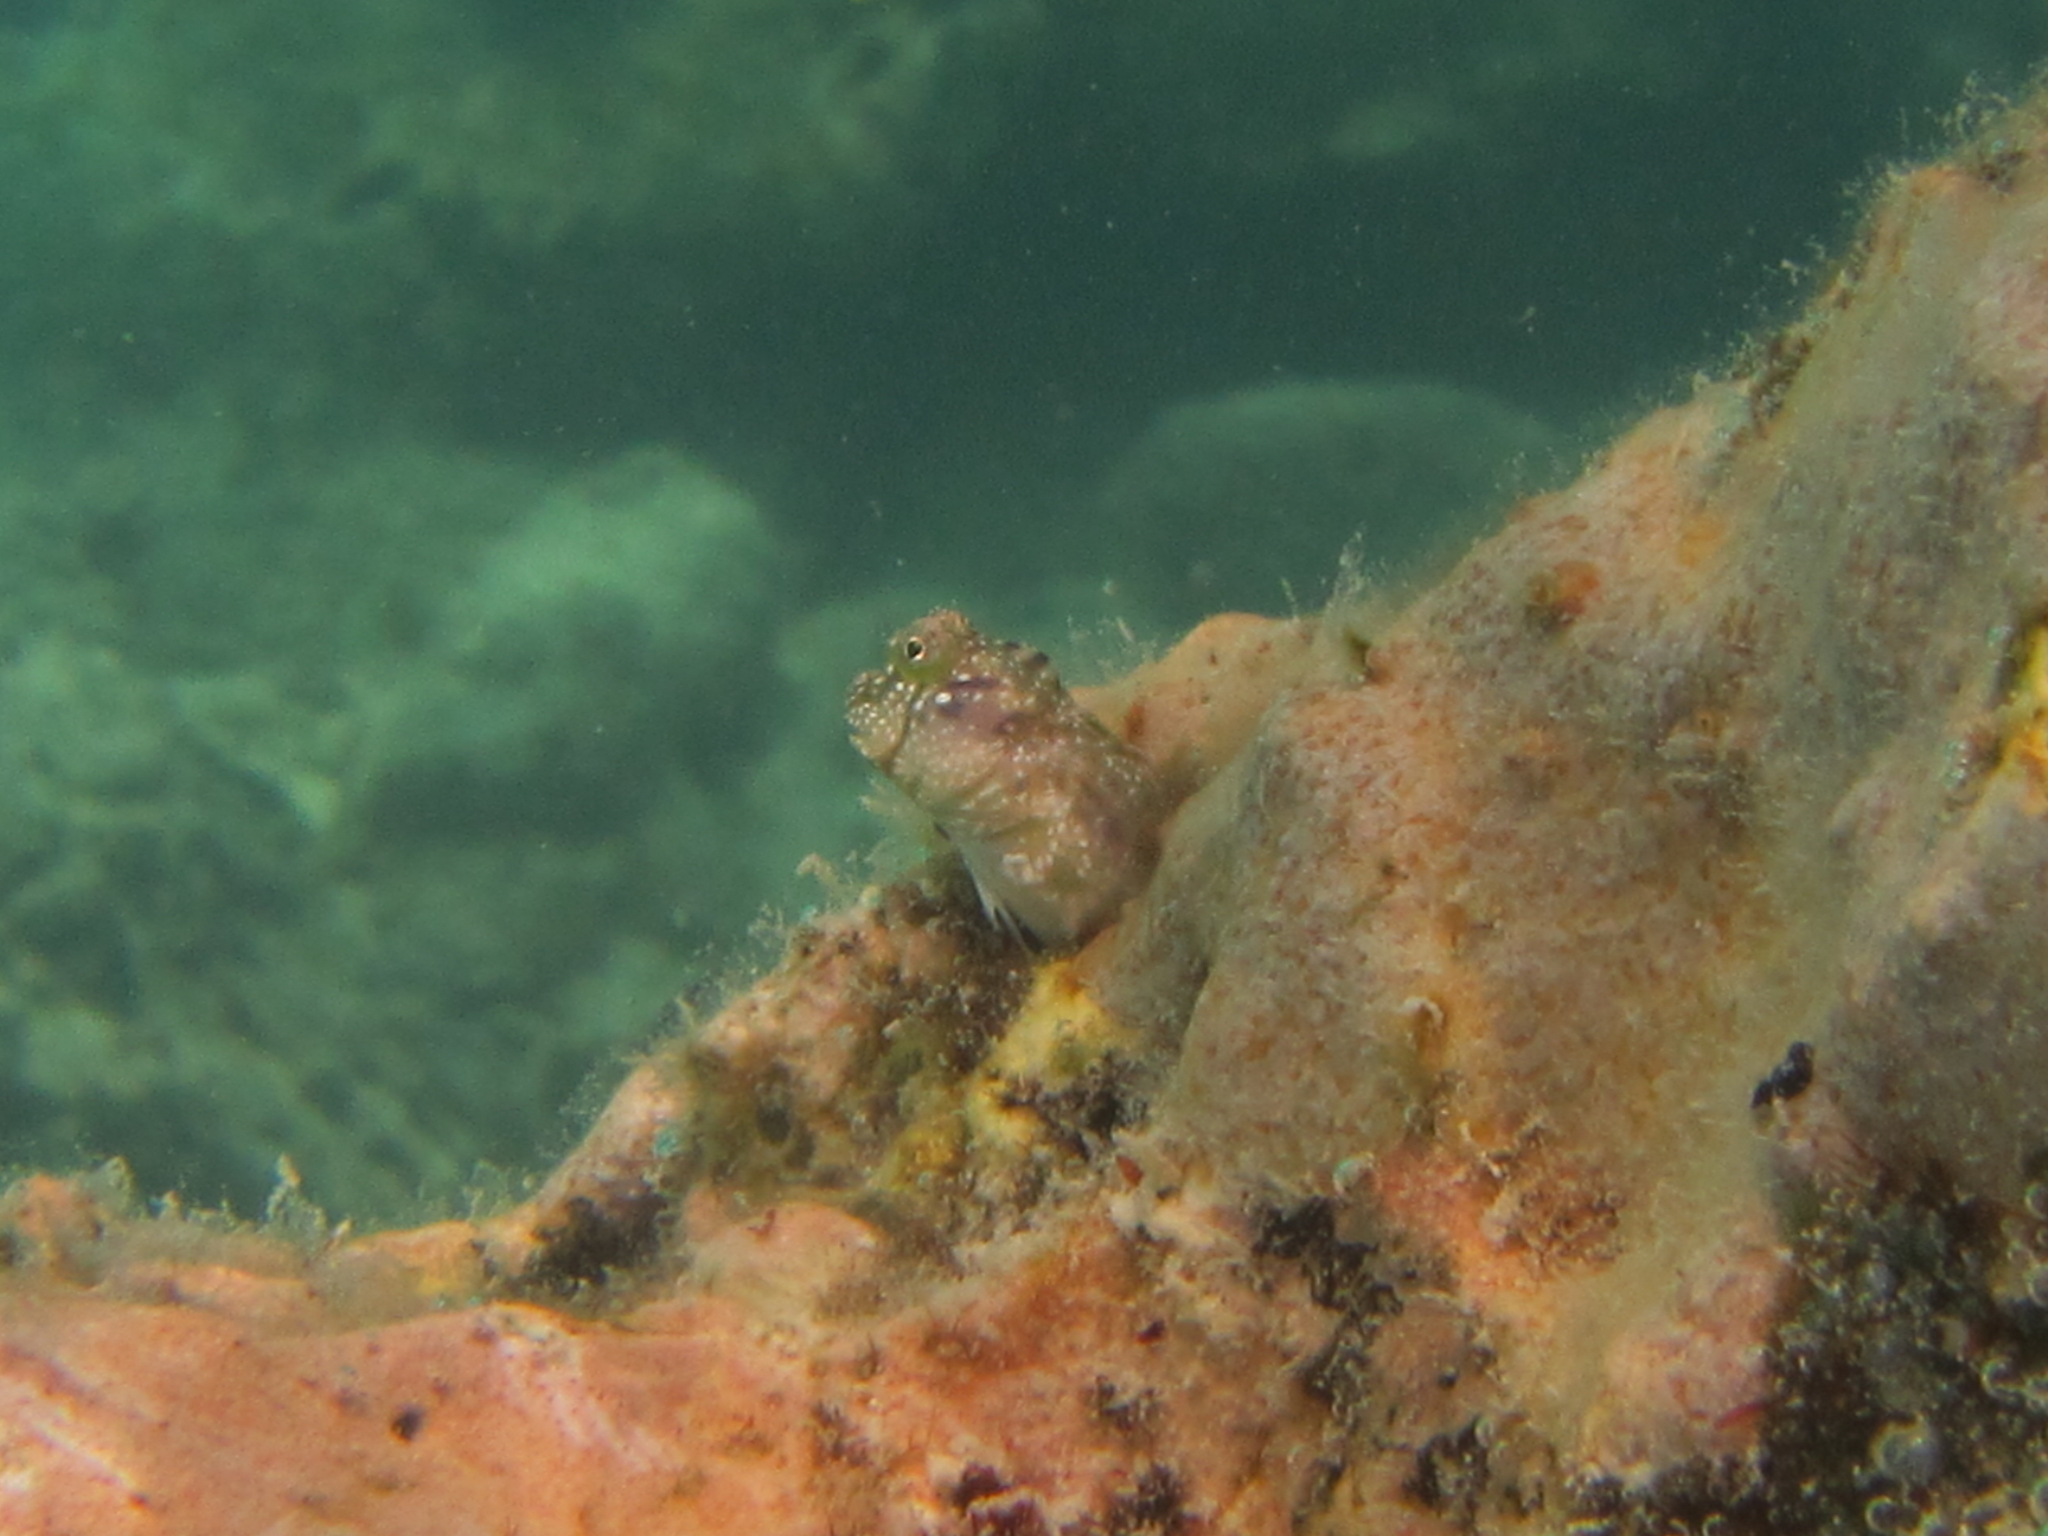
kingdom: Animalia
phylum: Chordata
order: Perciformes
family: Blenniidae
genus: Glyptoparus
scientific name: Glyptoparus delicatulus
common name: Delicate blenny
